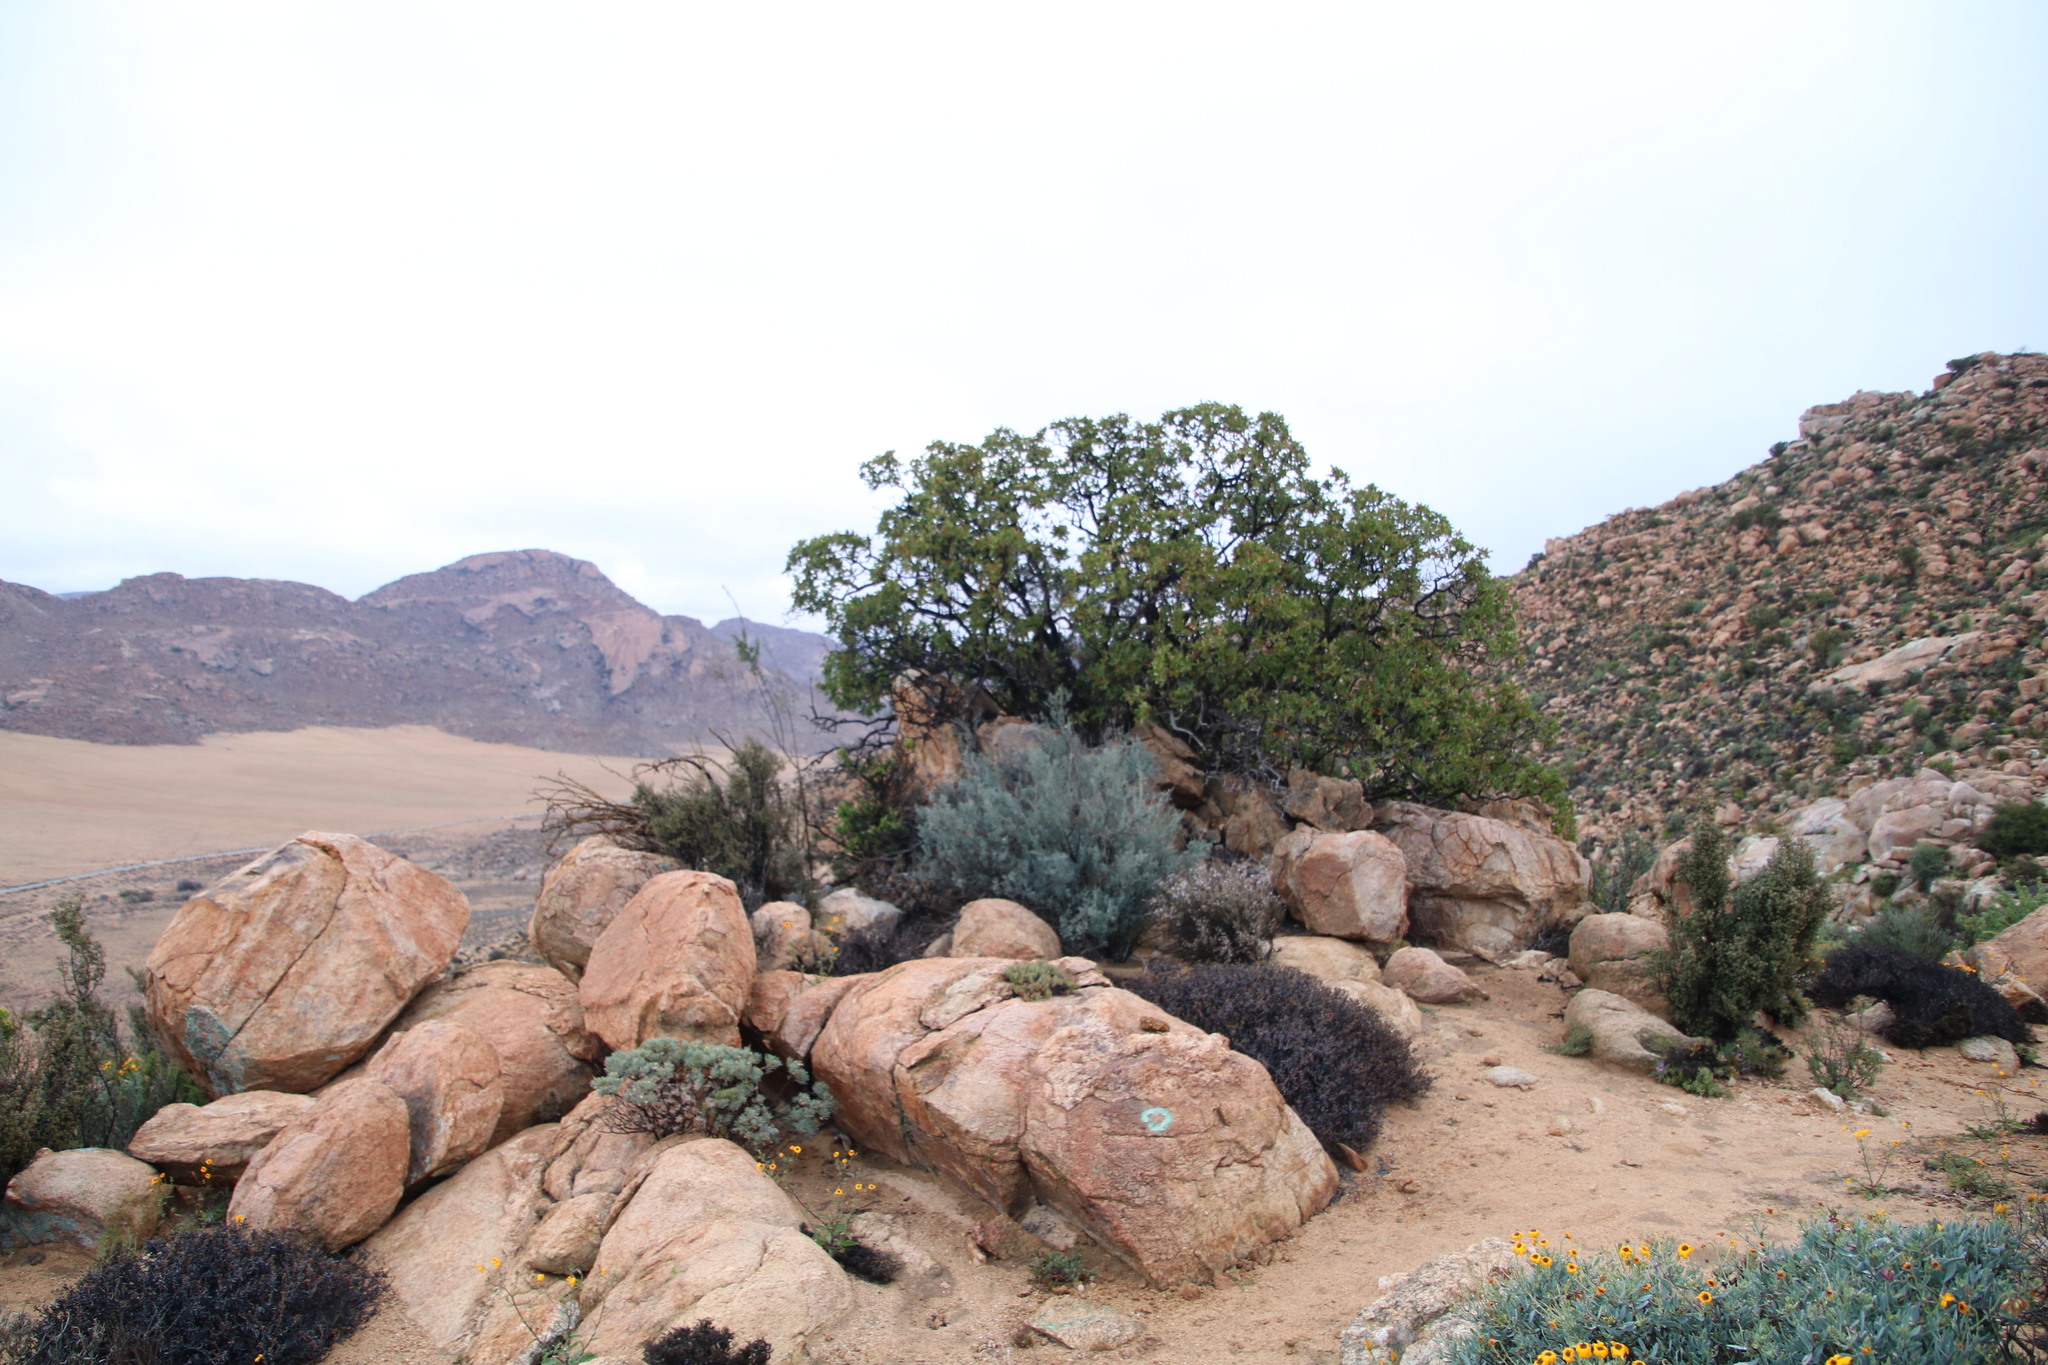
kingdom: Plantae
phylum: Tracheophyta
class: Magnoliopsida
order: Sapindales
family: Anacardiaceae
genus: Ozoroa
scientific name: Ozoroa dispar
